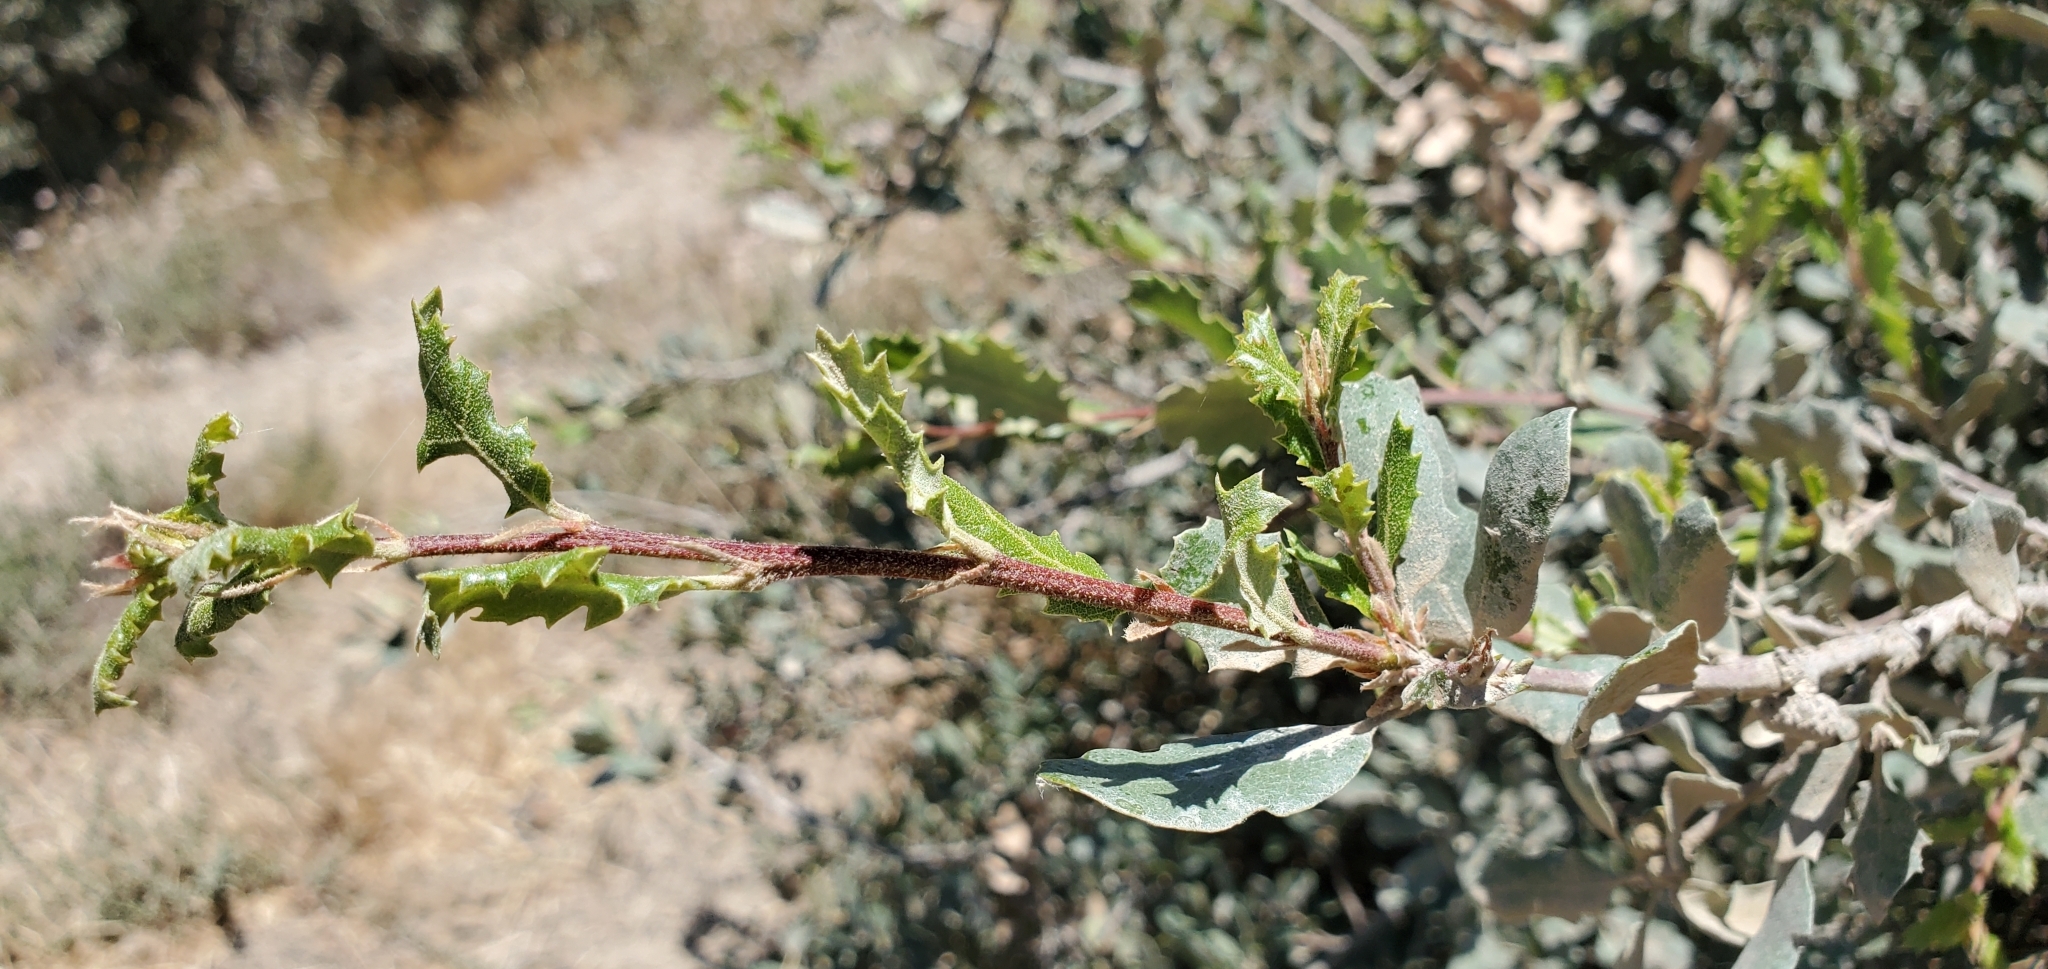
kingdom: Plantae
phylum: Tracheophyta
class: Magnoliopsida
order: Fagales
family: Fagaceae
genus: Quercus
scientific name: Quercus berberidifolia
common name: California scrub oak
